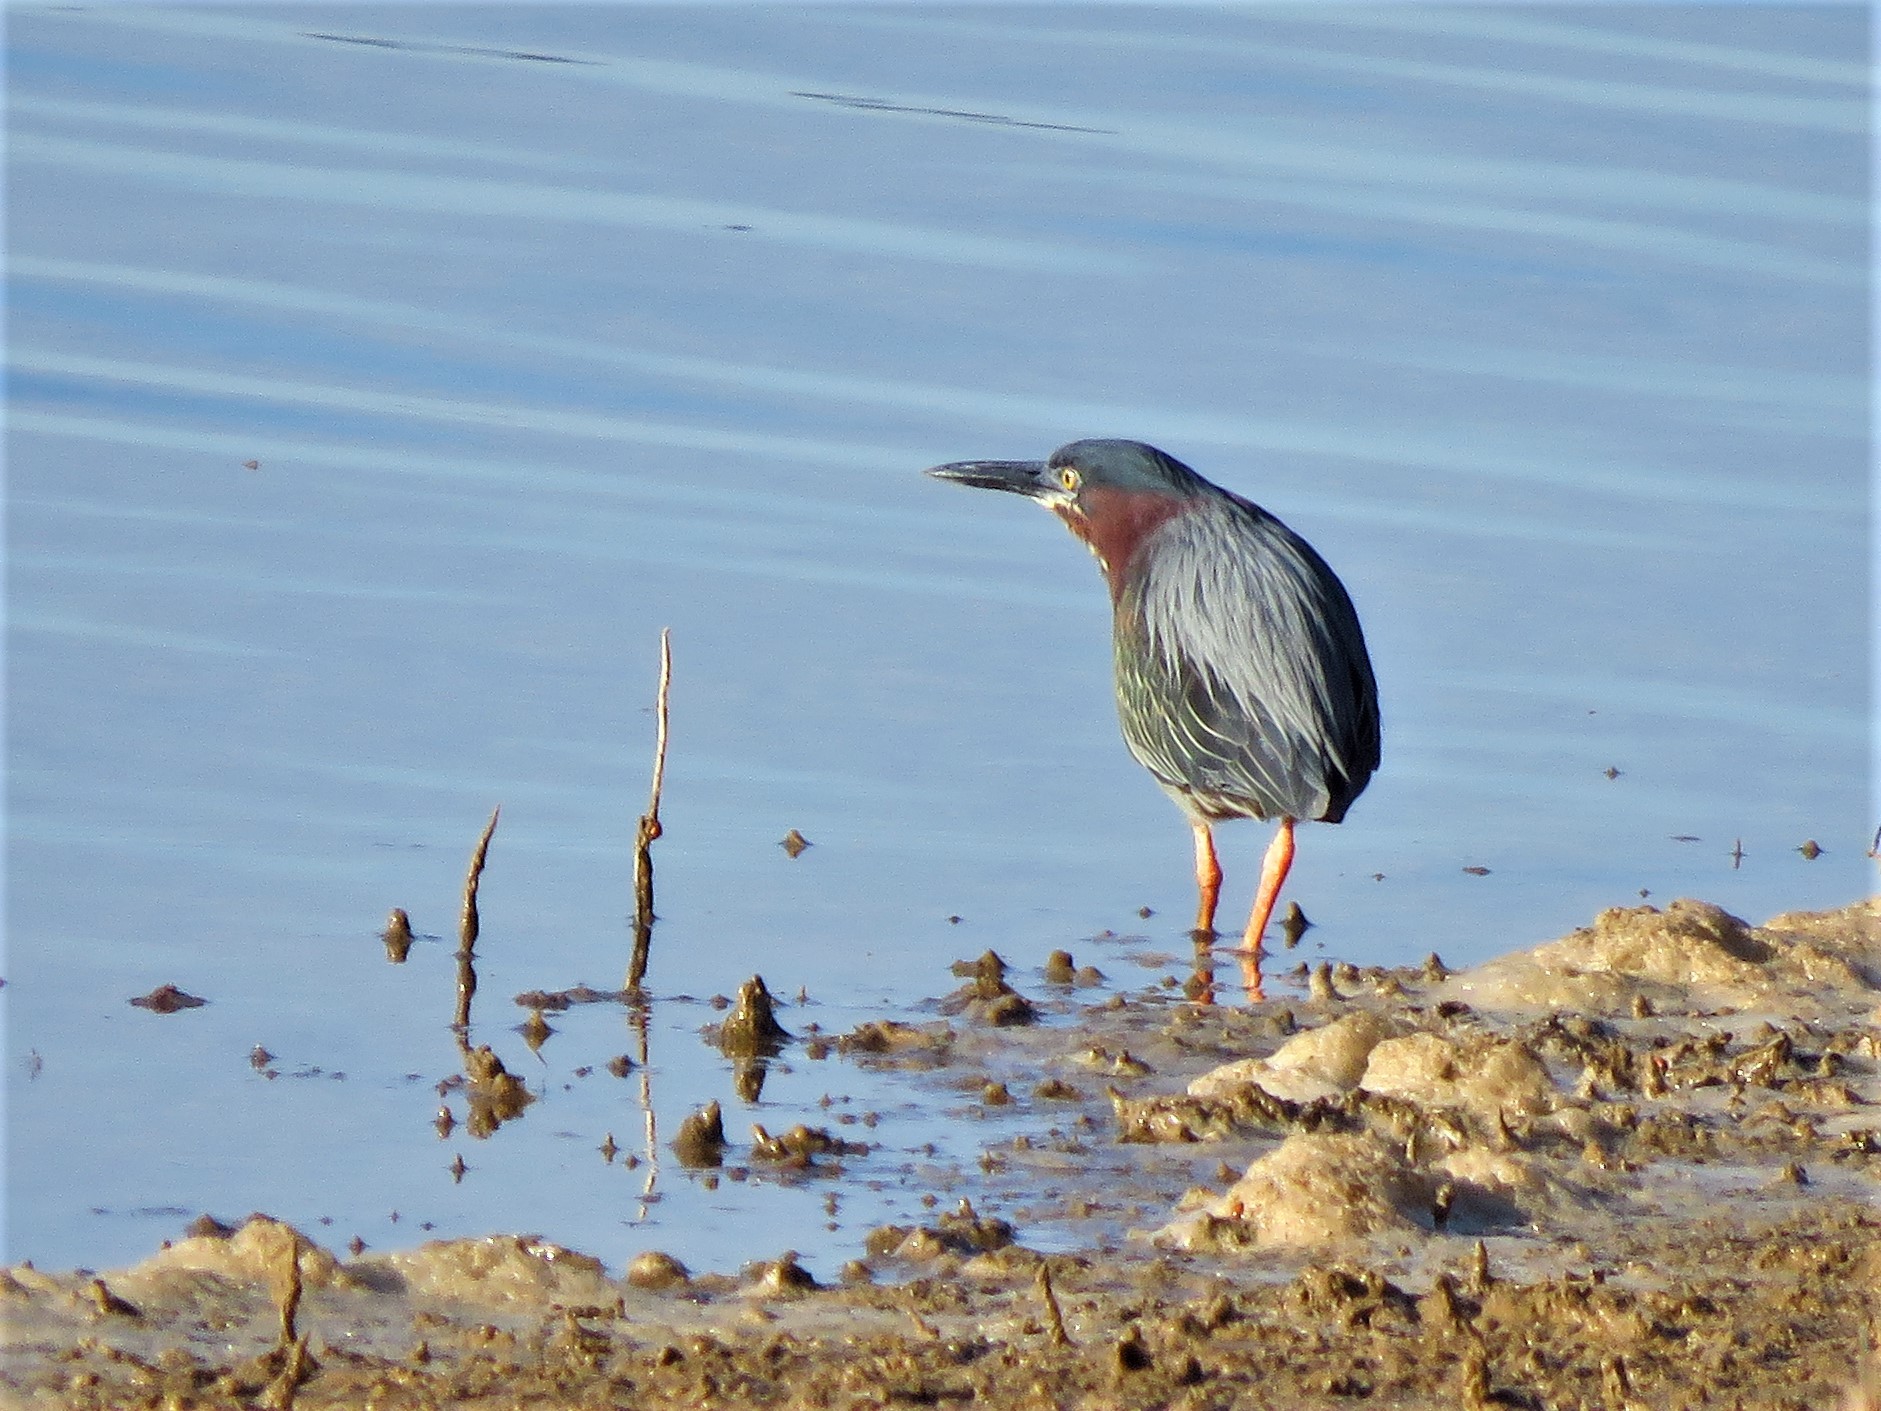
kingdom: Animalia
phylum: Chordata
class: Aves
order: Pelecaniformes
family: Ardeidae
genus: Butorides
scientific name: Butorides virescens
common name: Green heron
